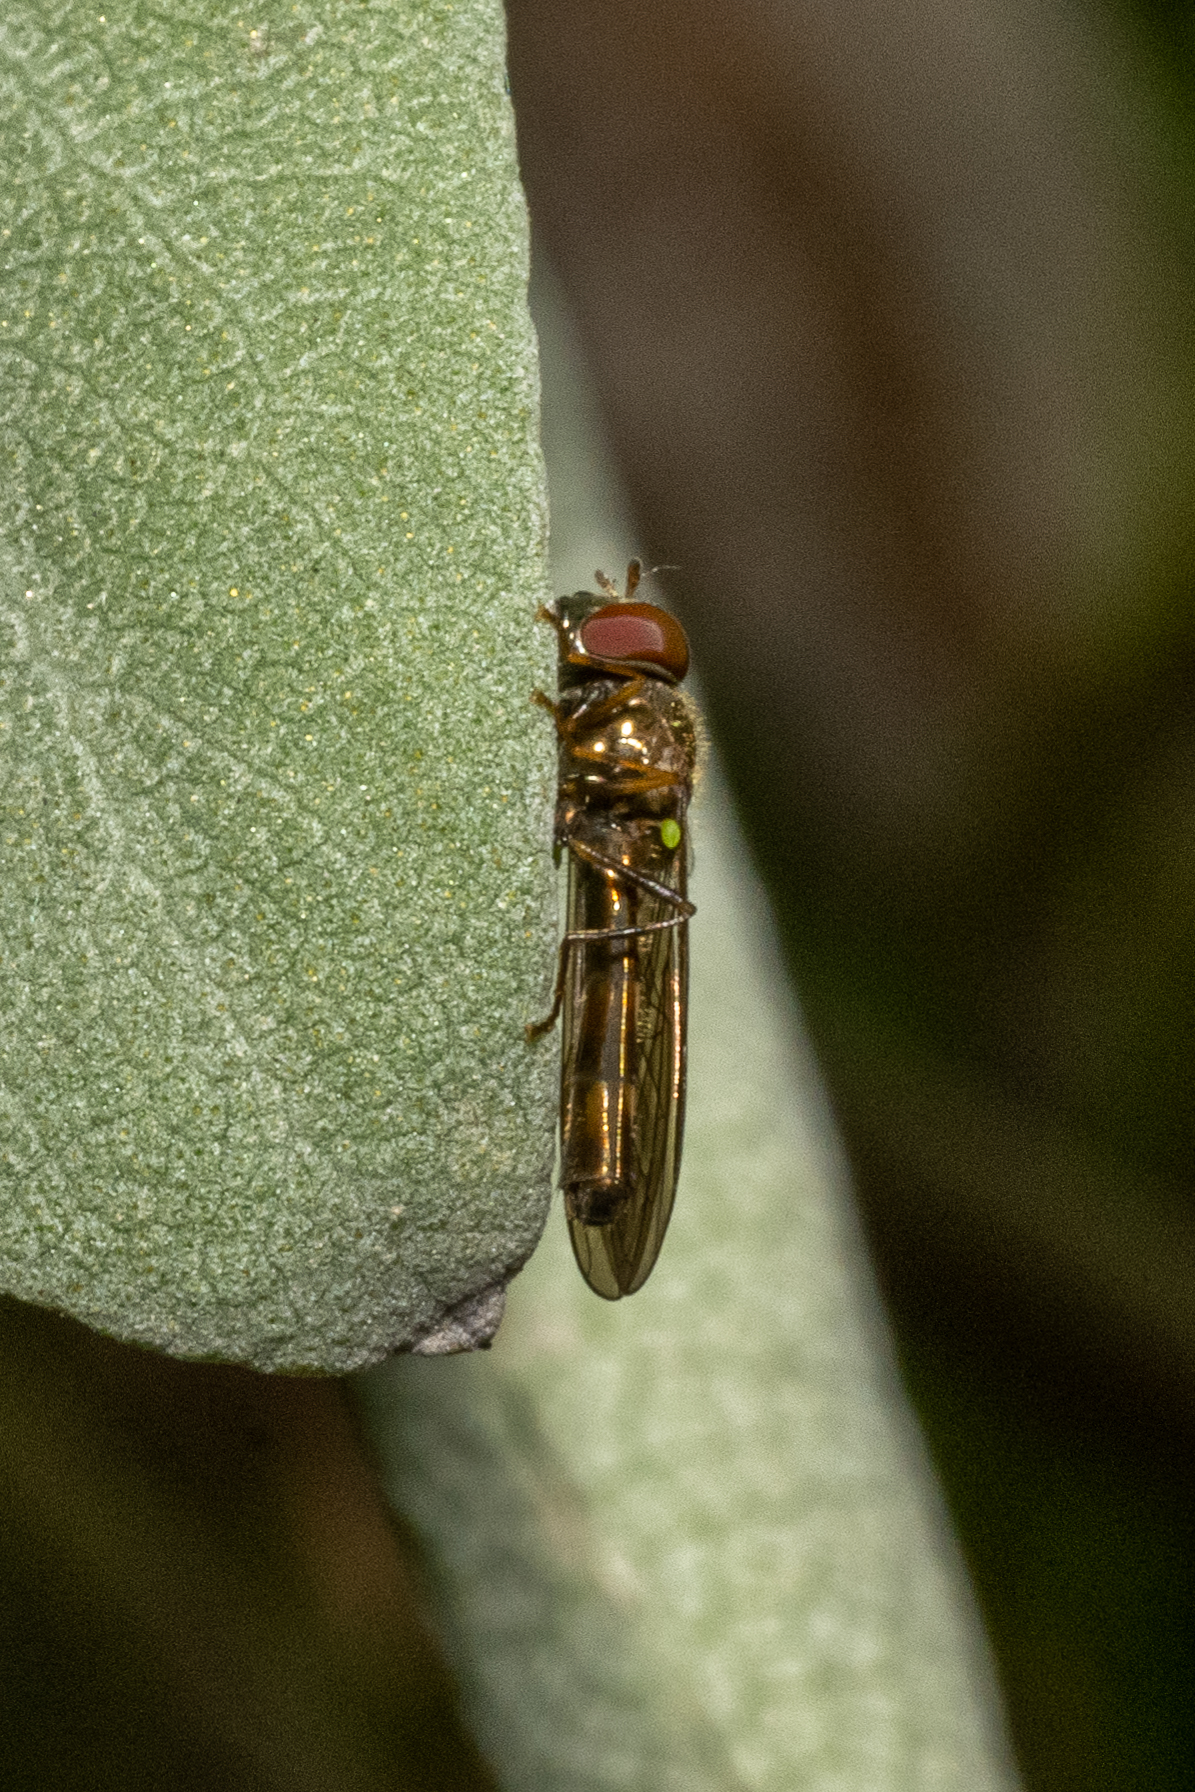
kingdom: Animalia
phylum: Arthropoda
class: Insecta
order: Diptera
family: Syrphidae
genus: Melanostoma
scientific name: Melanostoma mellina
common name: Hover fly
